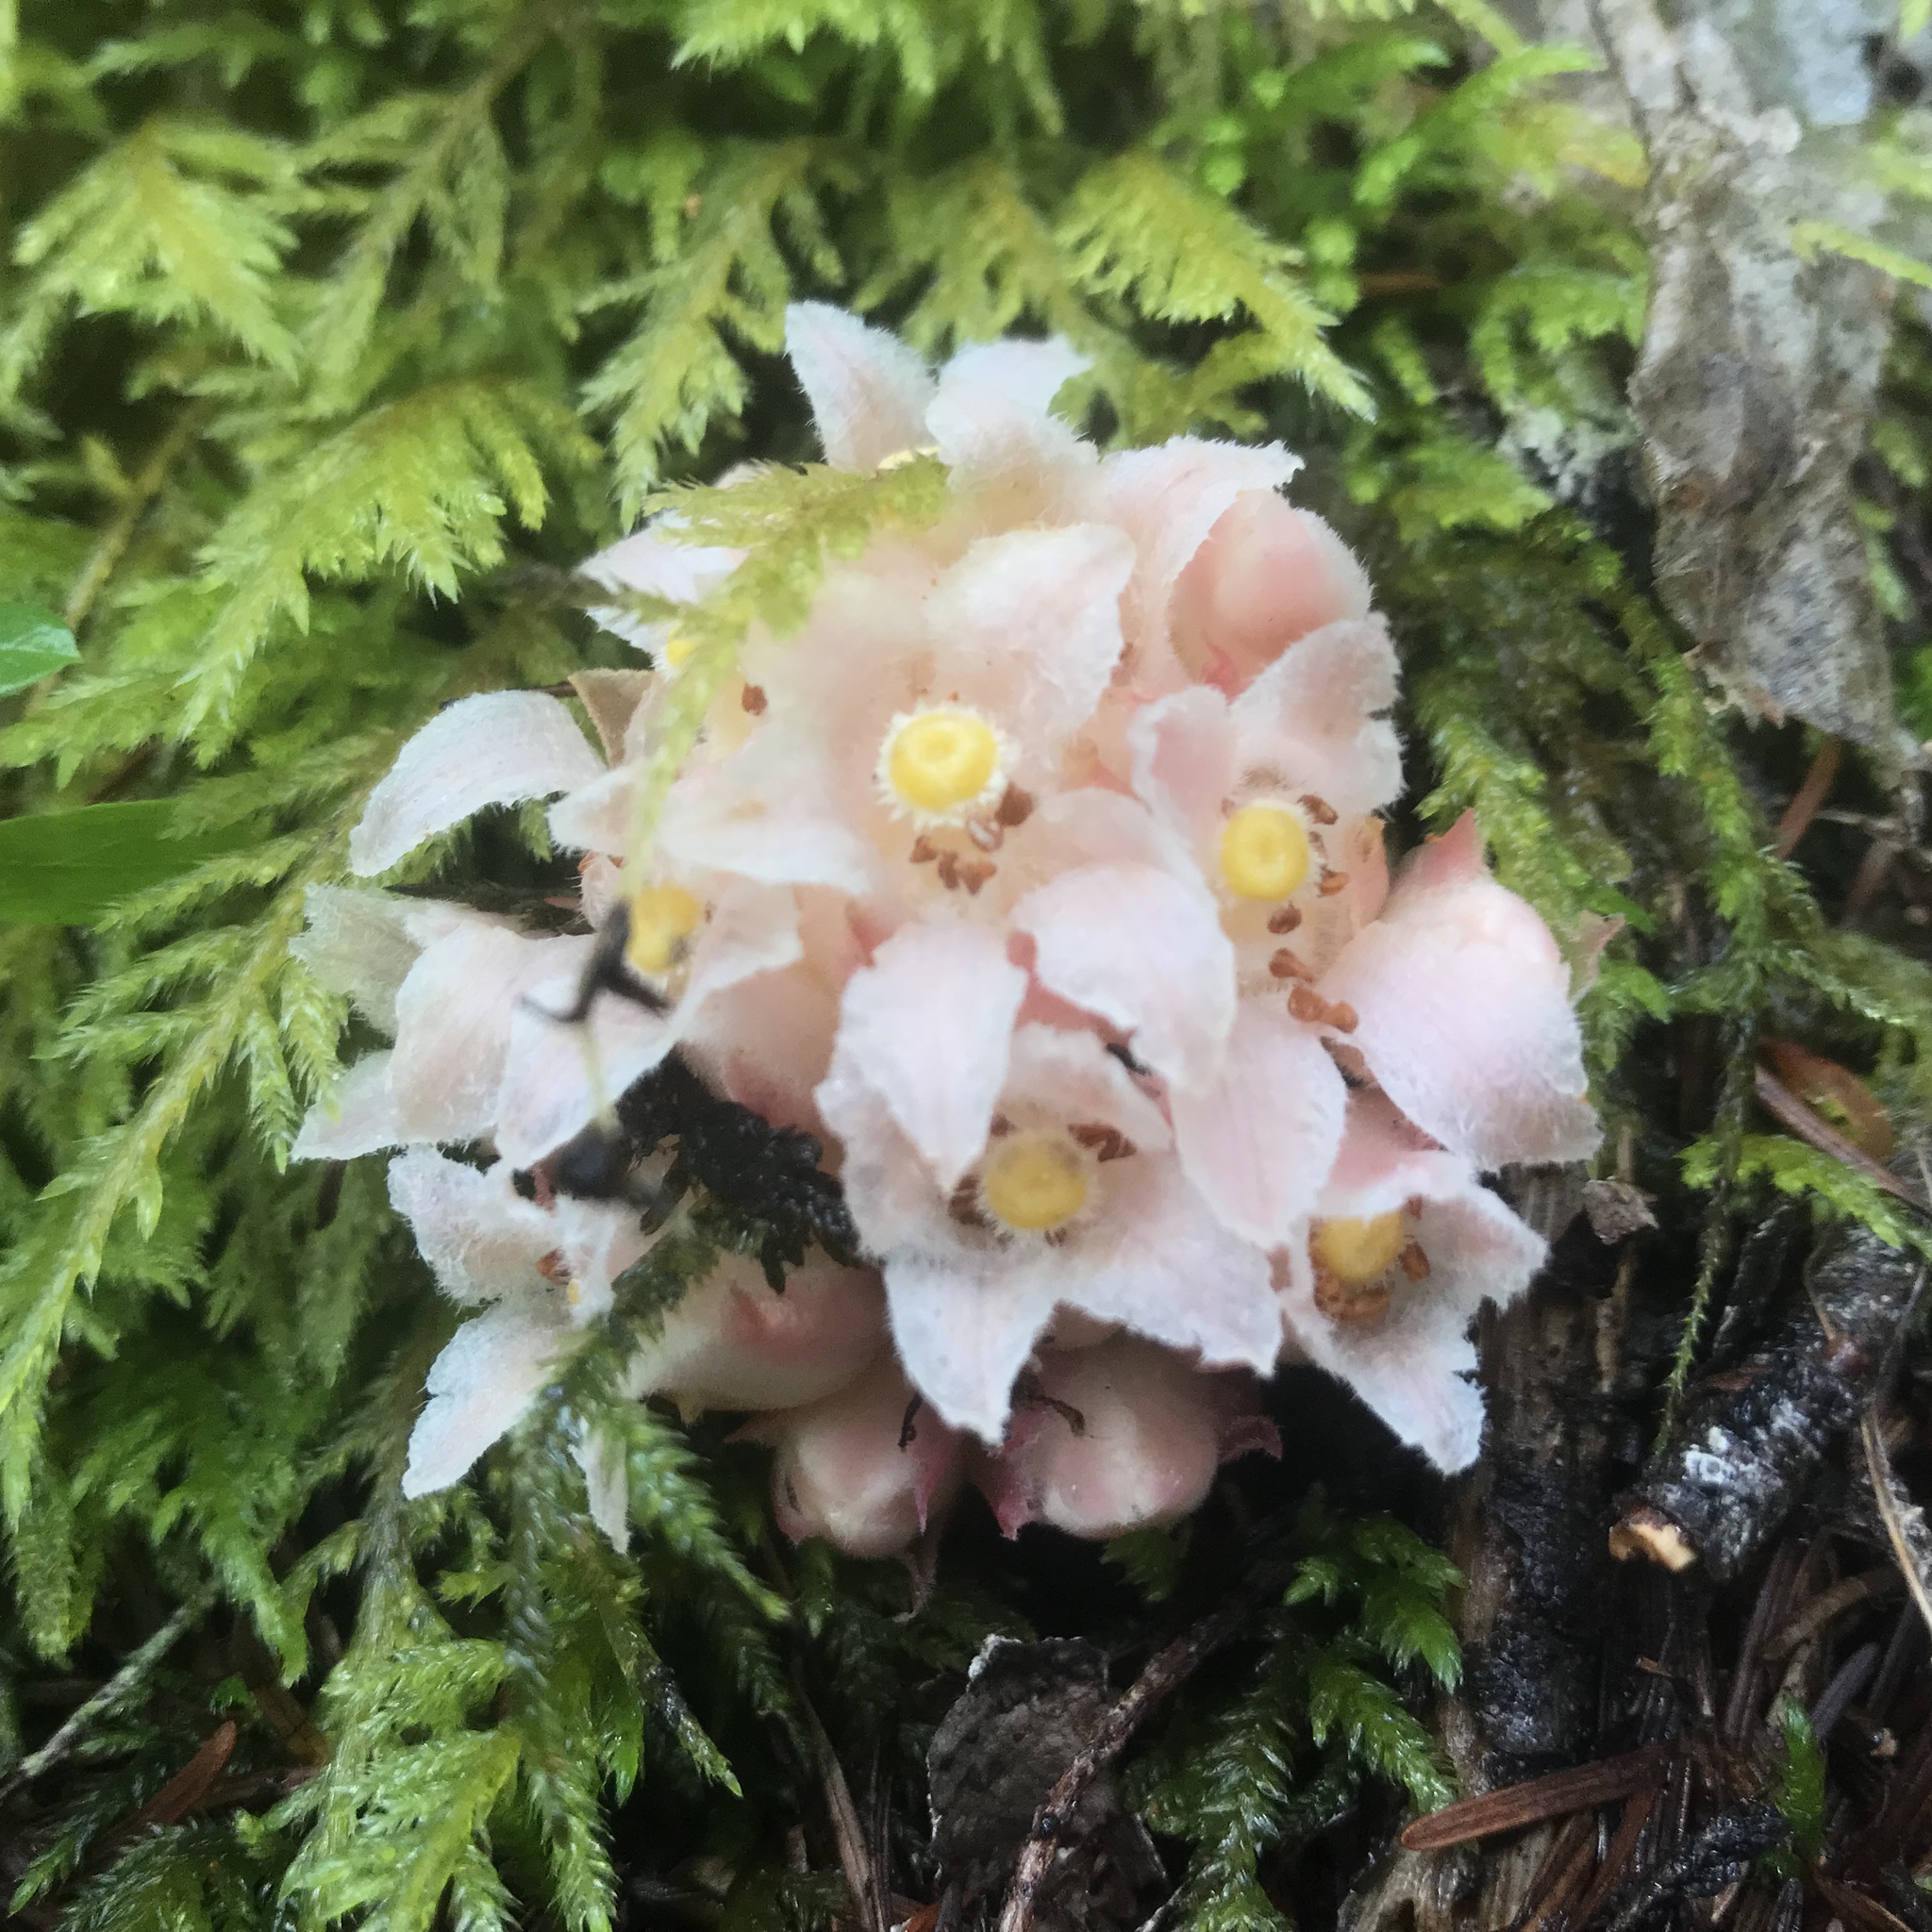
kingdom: Plantae
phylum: Tracheophyta
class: Magnoliopsida
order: Ericales
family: Ericaceae
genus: Hemitomes
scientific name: Hemitomes congestum
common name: Cone plant
